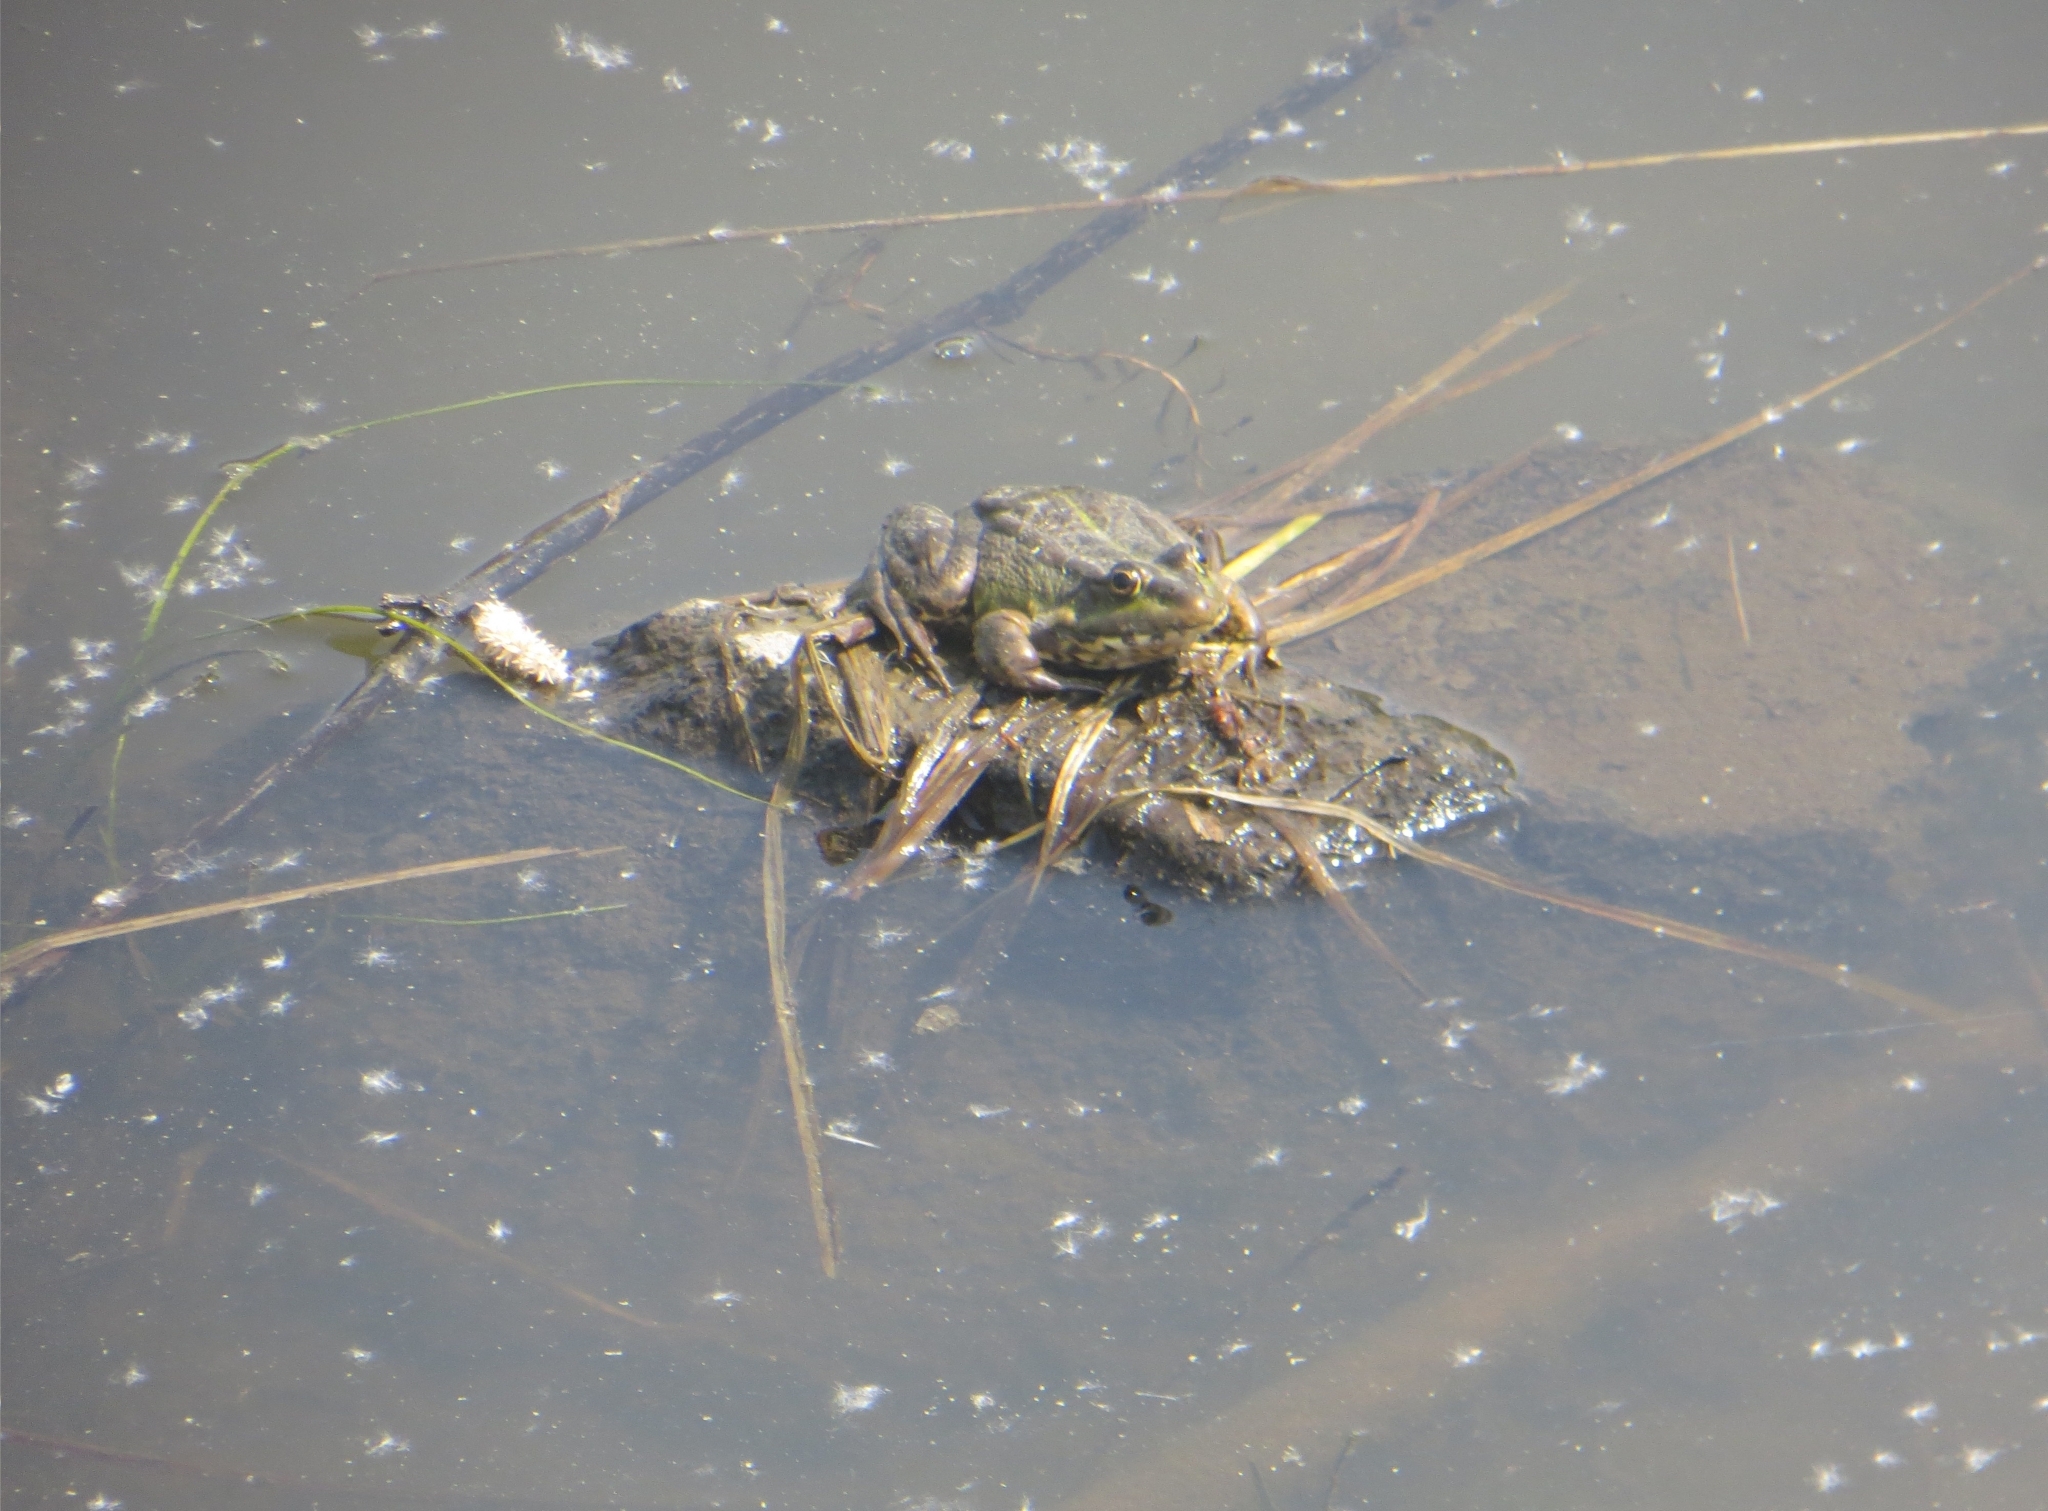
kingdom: Animalia
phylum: Chordata
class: Amphibia
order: Anura
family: Ranidae
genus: Pelophylax
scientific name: Pelophylax ridibundus
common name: Marsh frog
